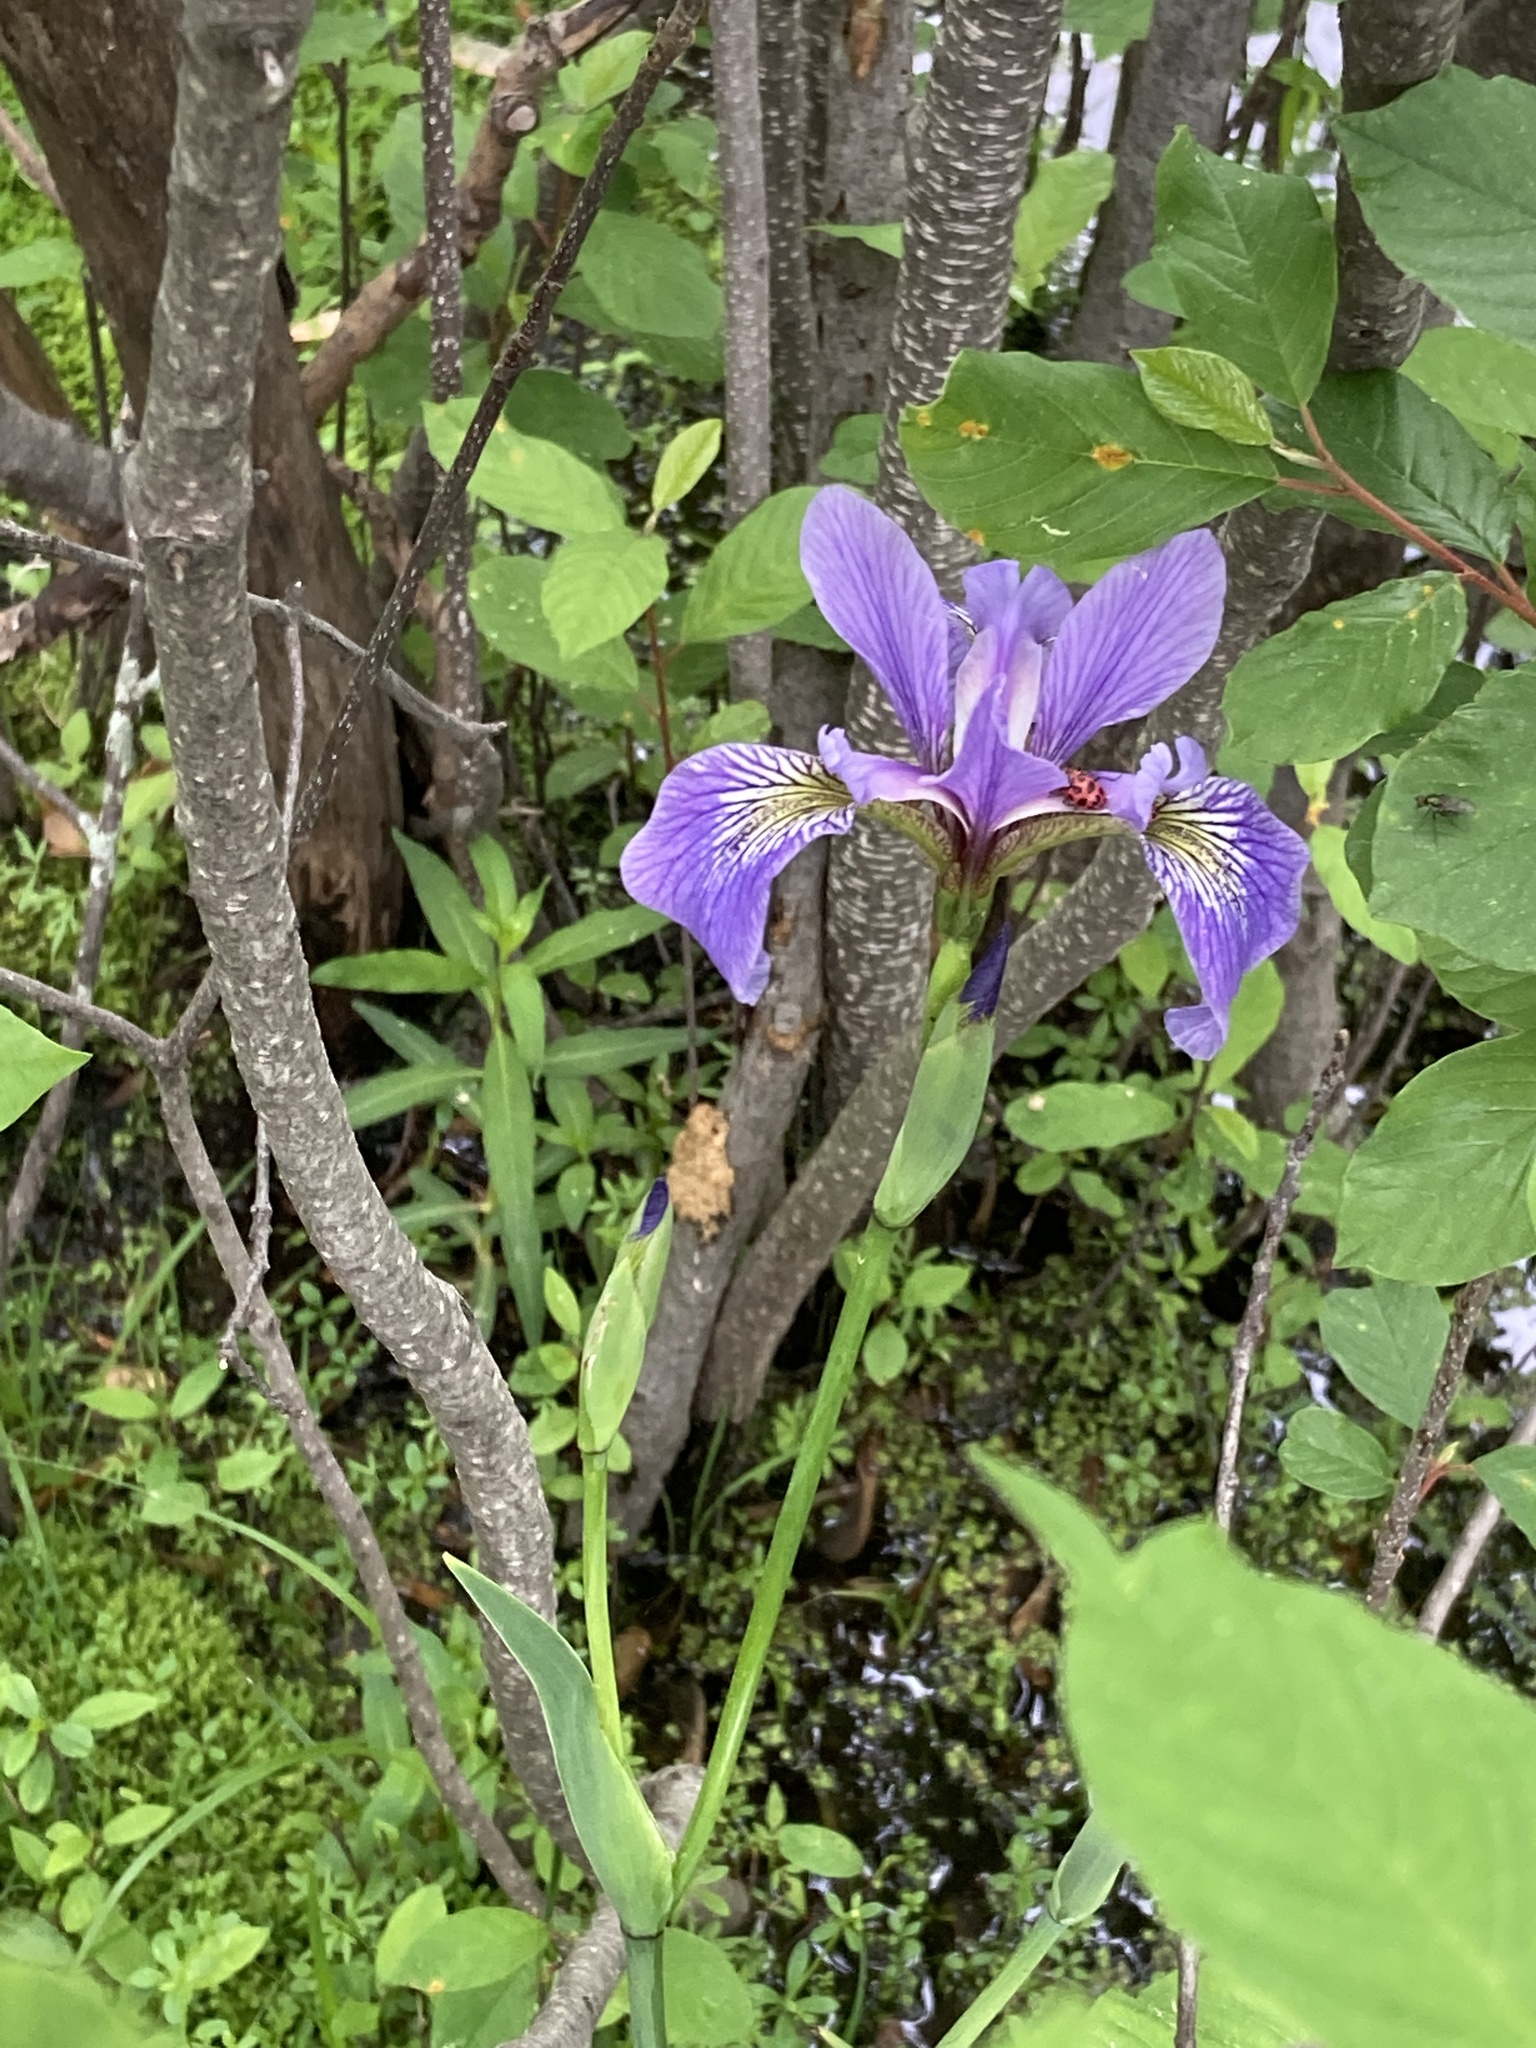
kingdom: Plantae
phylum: Tracheophyta
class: Liliopsida
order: Asparagales
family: Iridaceae
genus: Iris
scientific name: Iris versicolor
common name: Purple iris
